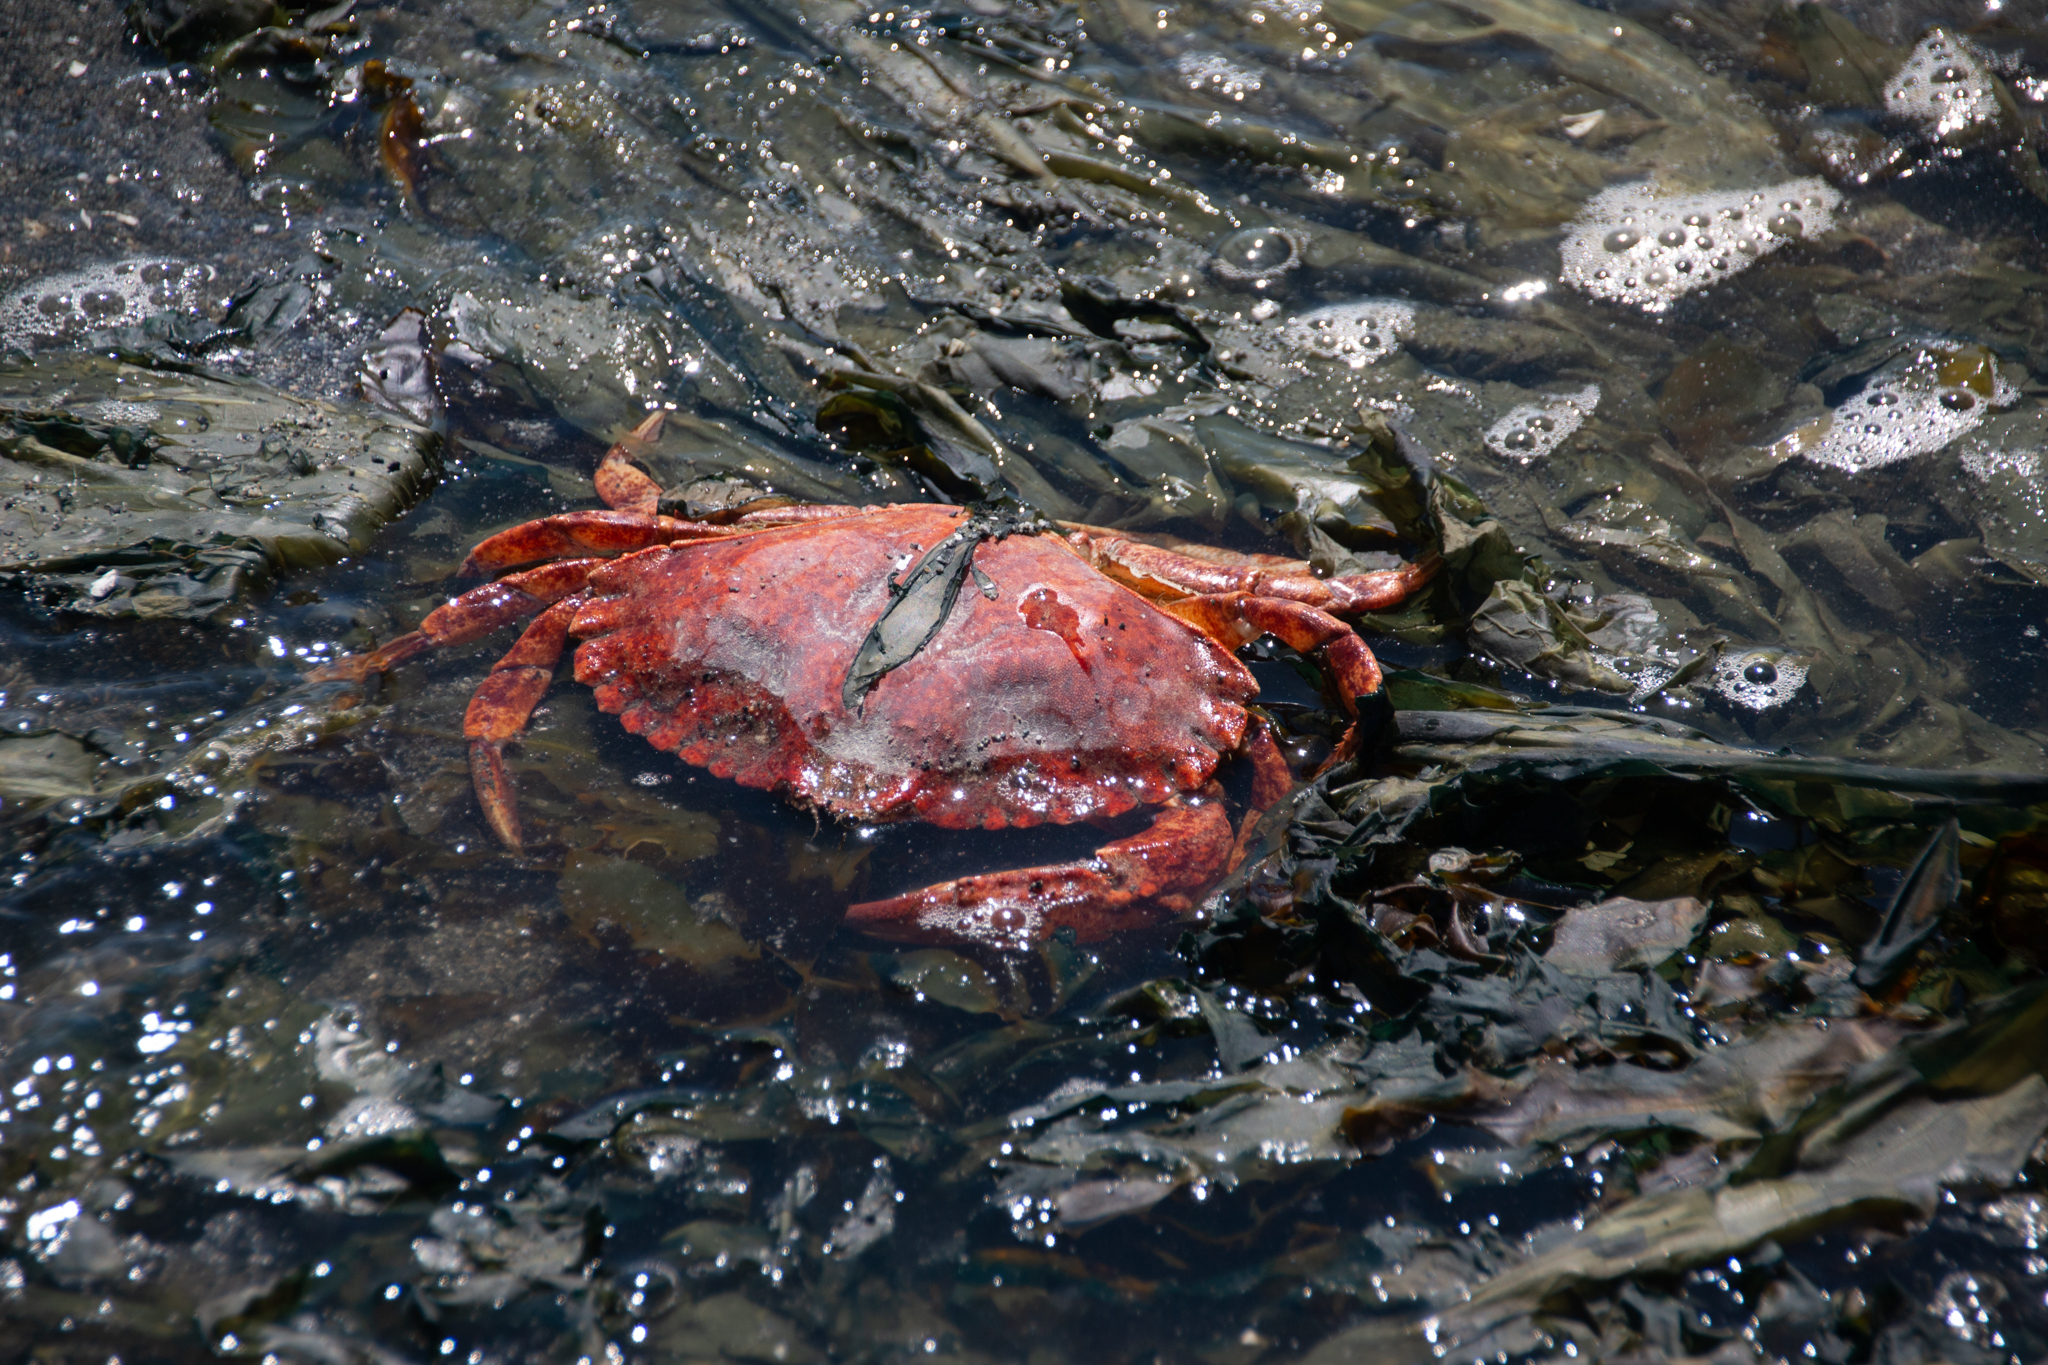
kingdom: Animalia
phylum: Arthropoda
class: Malacostraca
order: Decapoda
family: Cancridae
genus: Cancer
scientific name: Cancer productus
